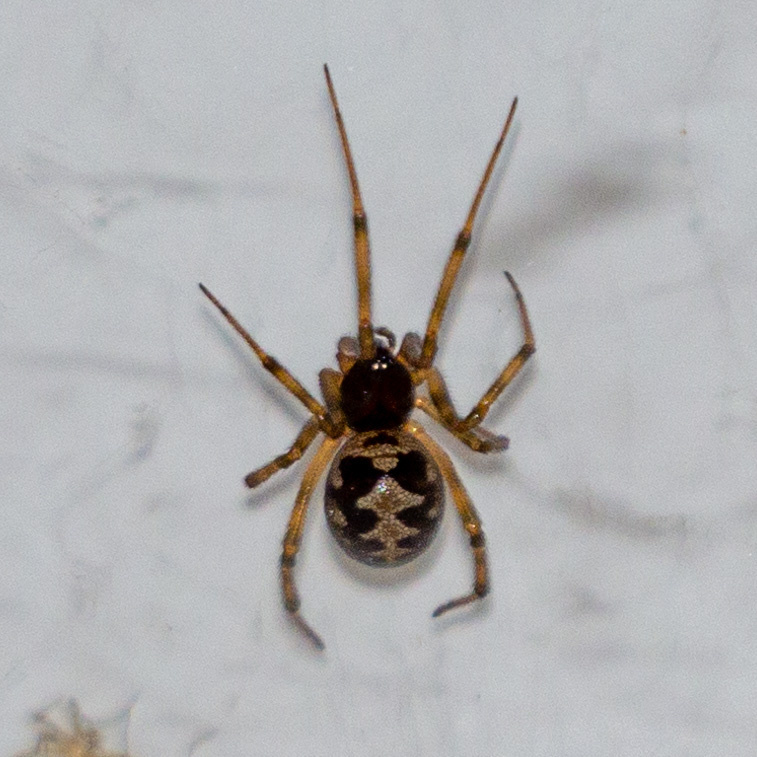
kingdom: Animalia
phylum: Arthropoda
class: Arachnida
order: Araneae
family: Theridiidae
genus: Steatoda
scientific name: Steatoda triangulosa
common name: Triangulate bud spider
